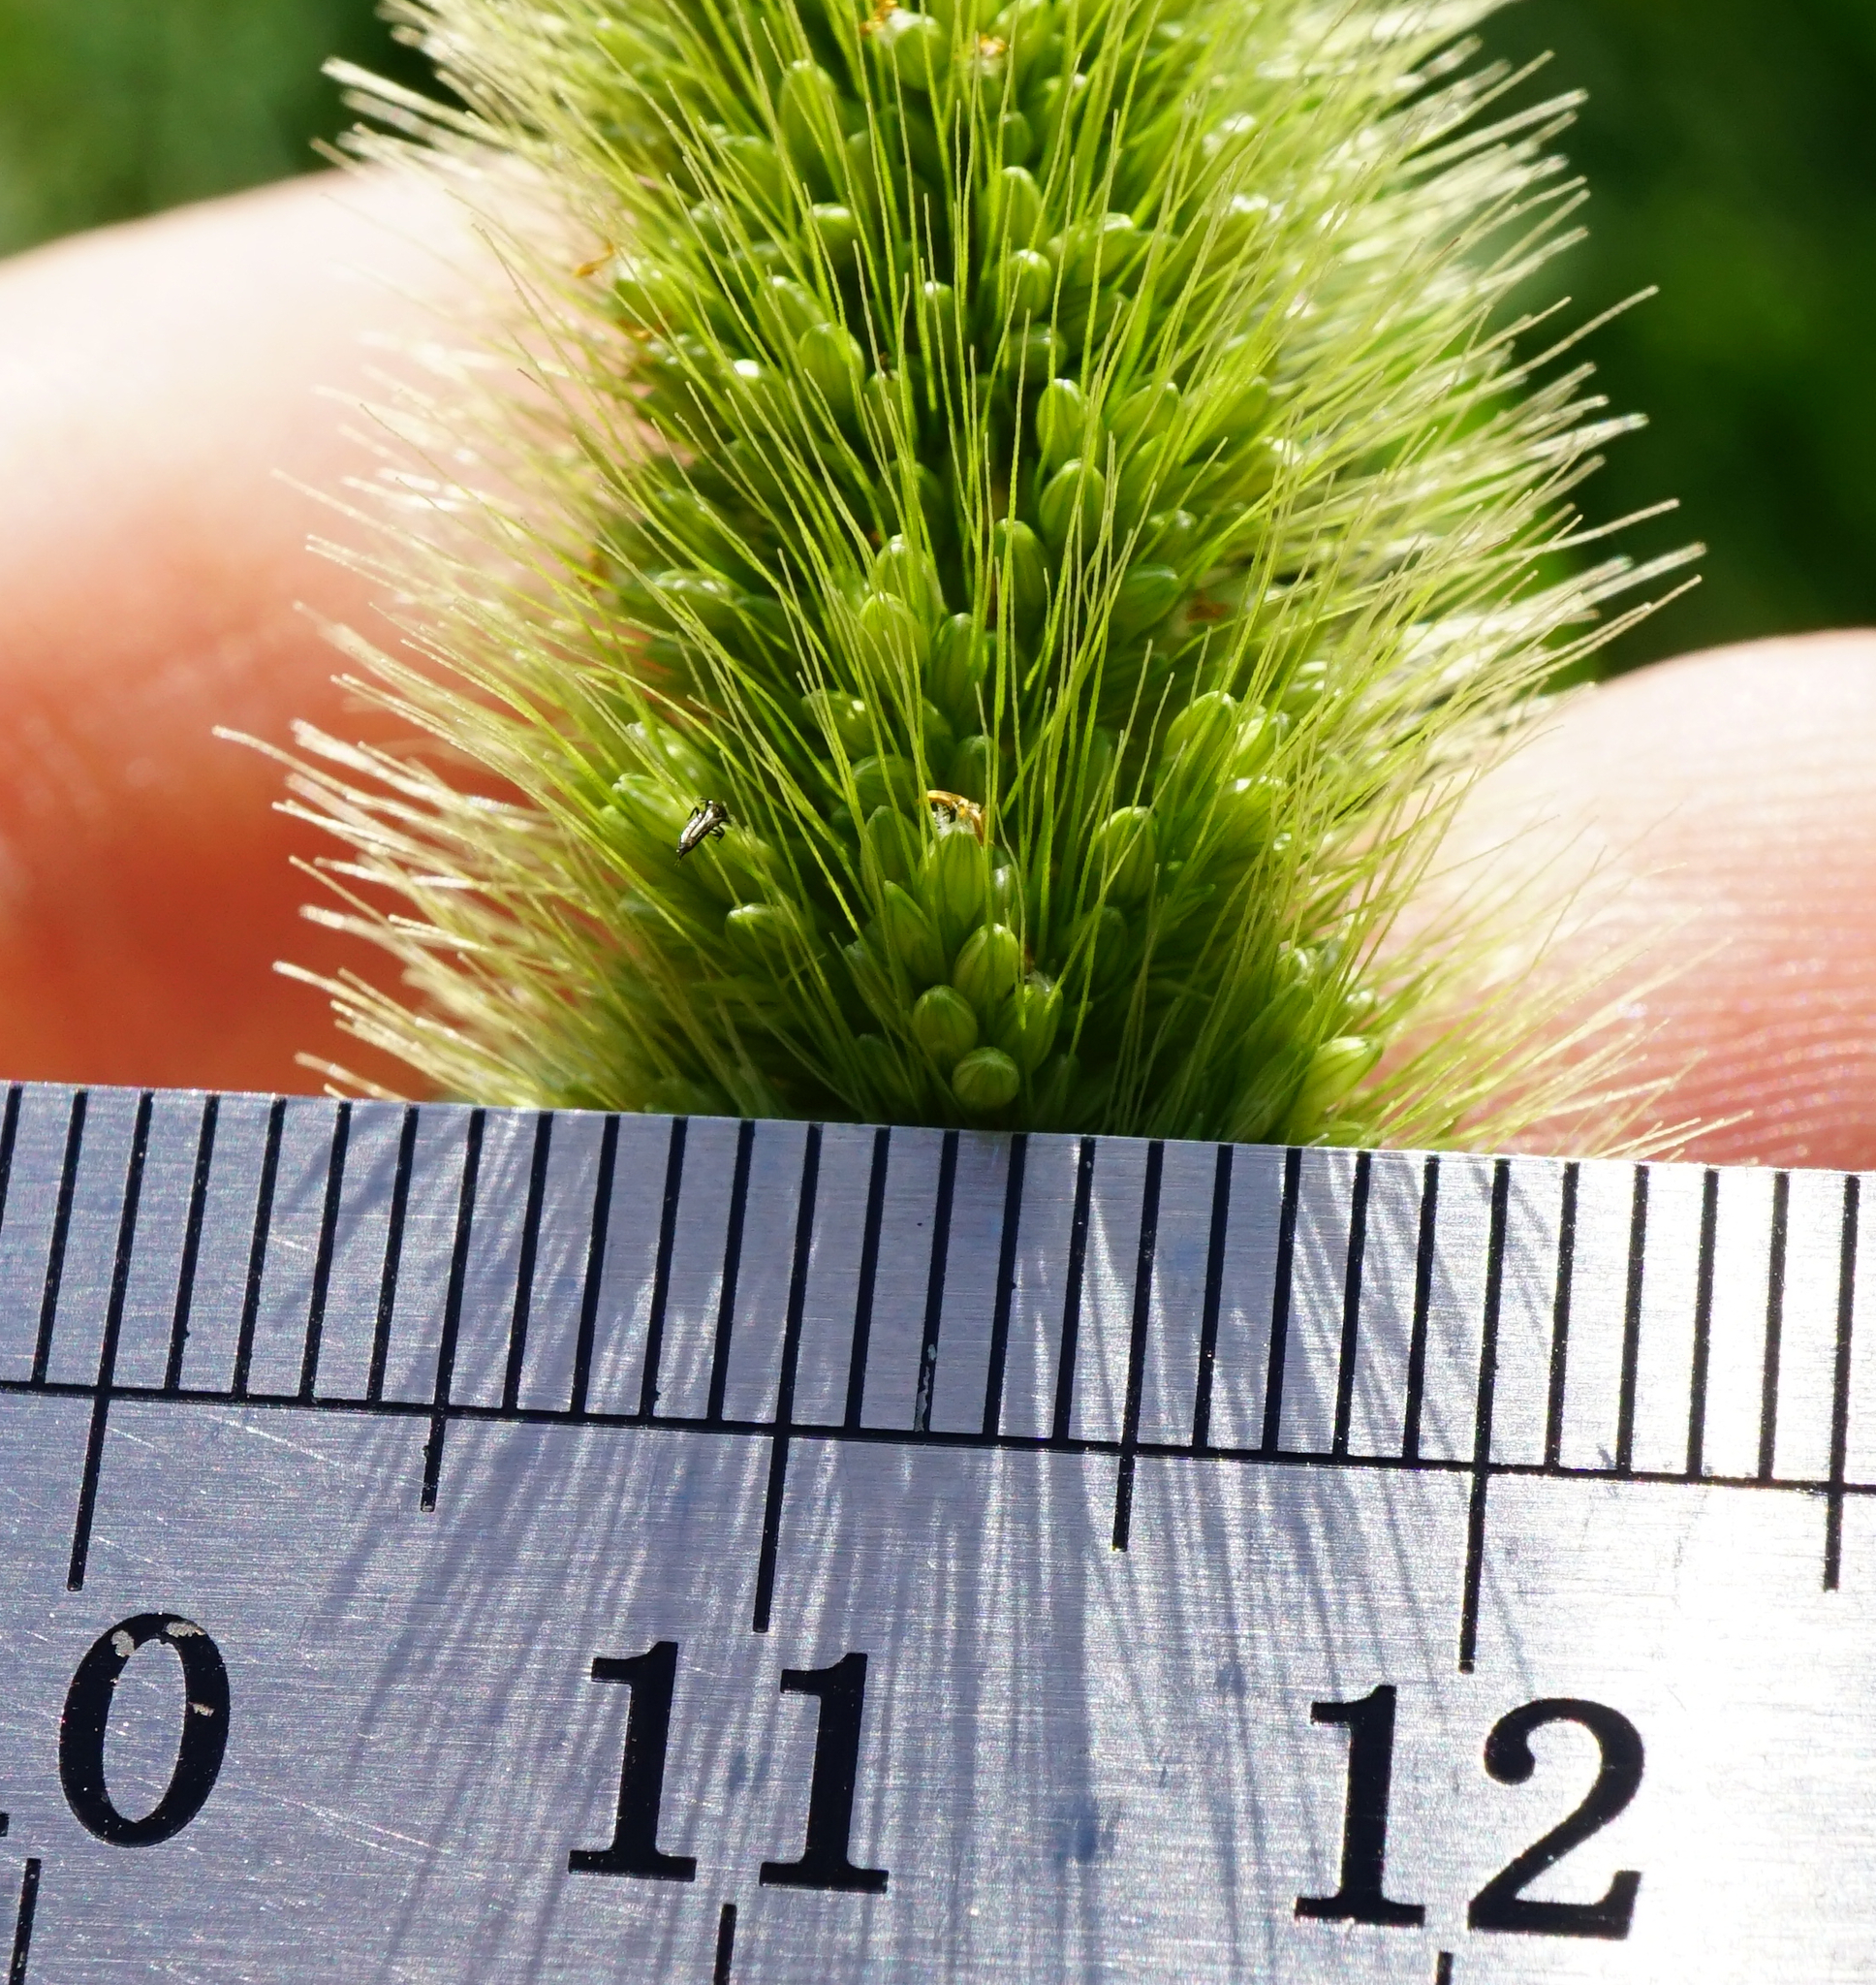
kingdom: Plantae
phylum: Tracheophyta
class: Liliopsida
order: Poales
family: Poaceae
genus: Setaria
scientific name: Setaria viridis
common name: Green bristlegrass
